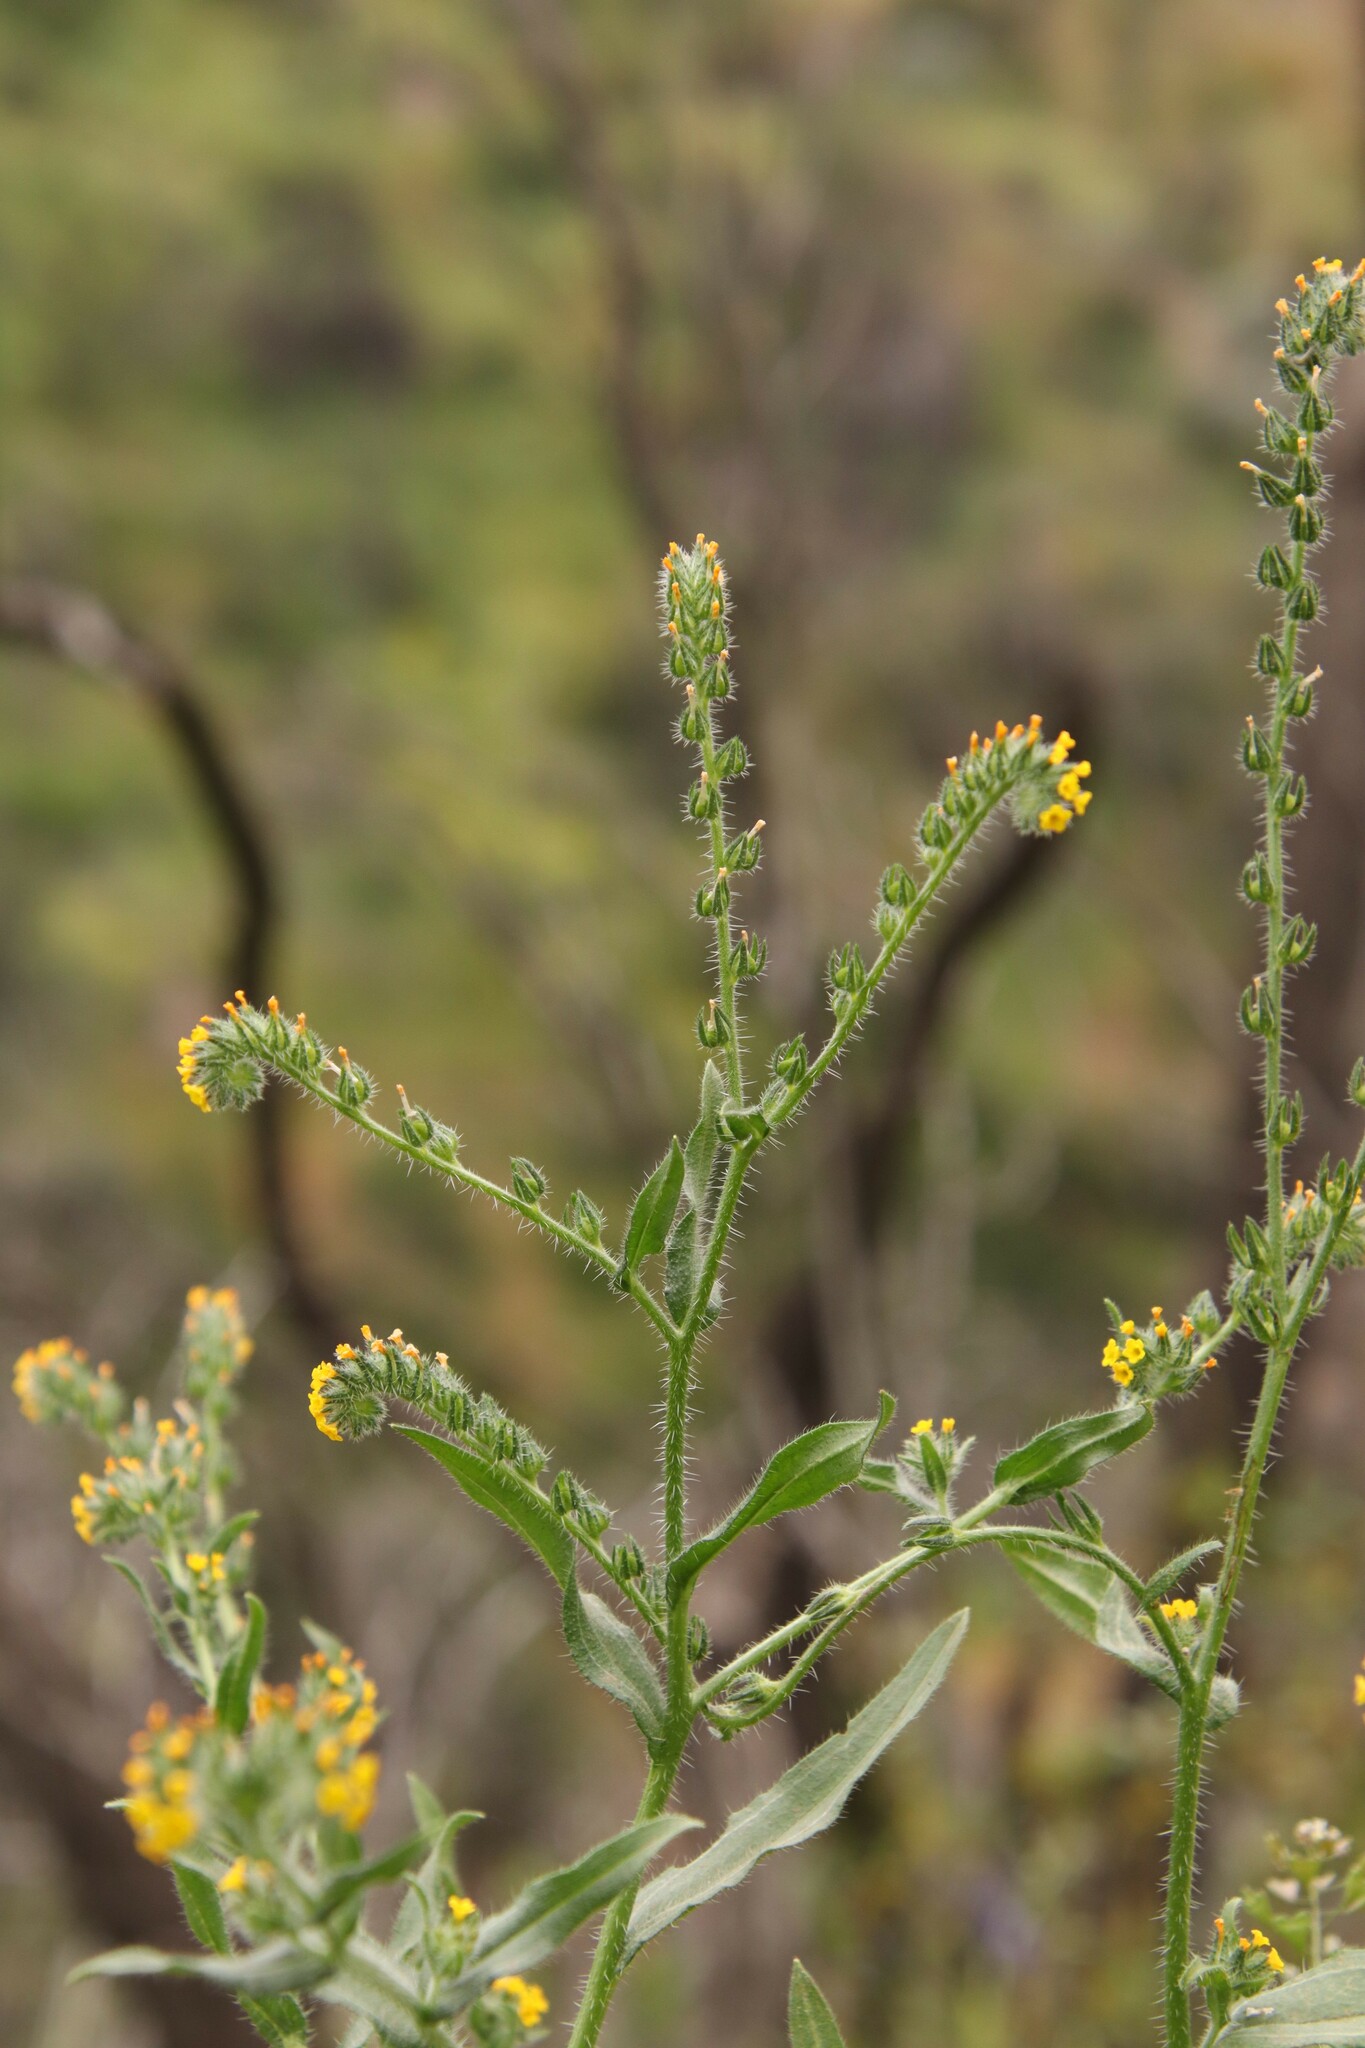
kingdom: Plantae
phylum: Tracheophyta
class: Magnoliopsida
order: Boraginales
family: Boraginaceae
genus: Amsinckia
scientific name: Amsinckia calycina
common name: Hairy fiddleneck
